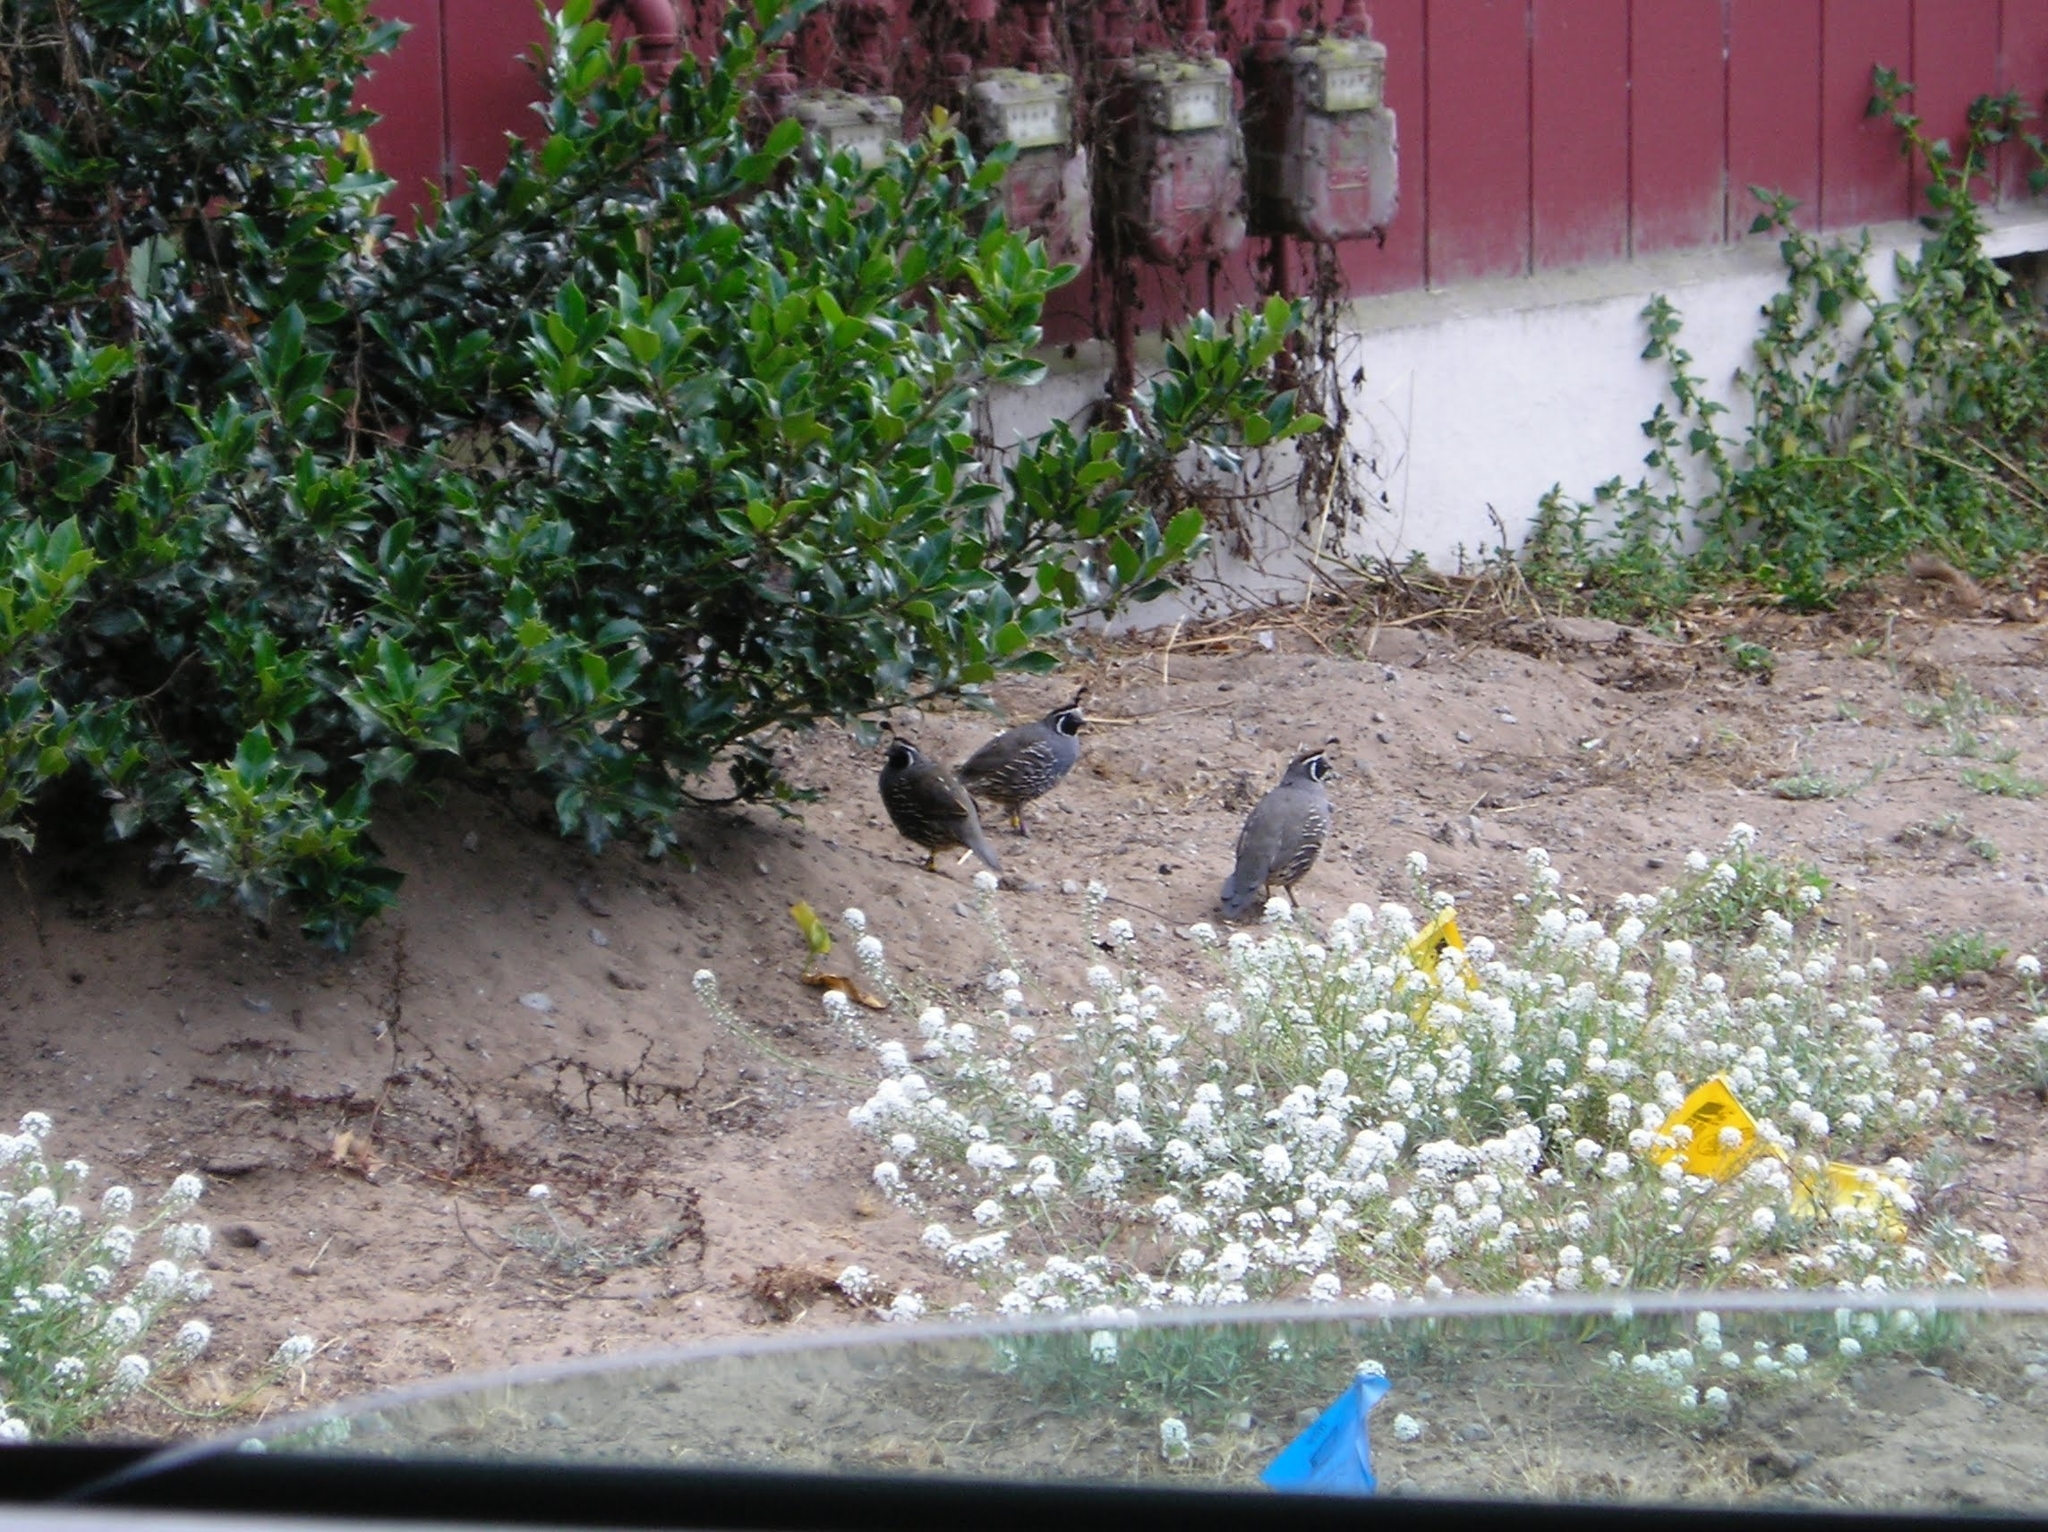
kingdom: Animalia
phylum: Chordata
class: Aves
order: Galliformes
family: Odontophoridae
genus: Callipepla
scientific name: Callipepla californica
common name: California quail
